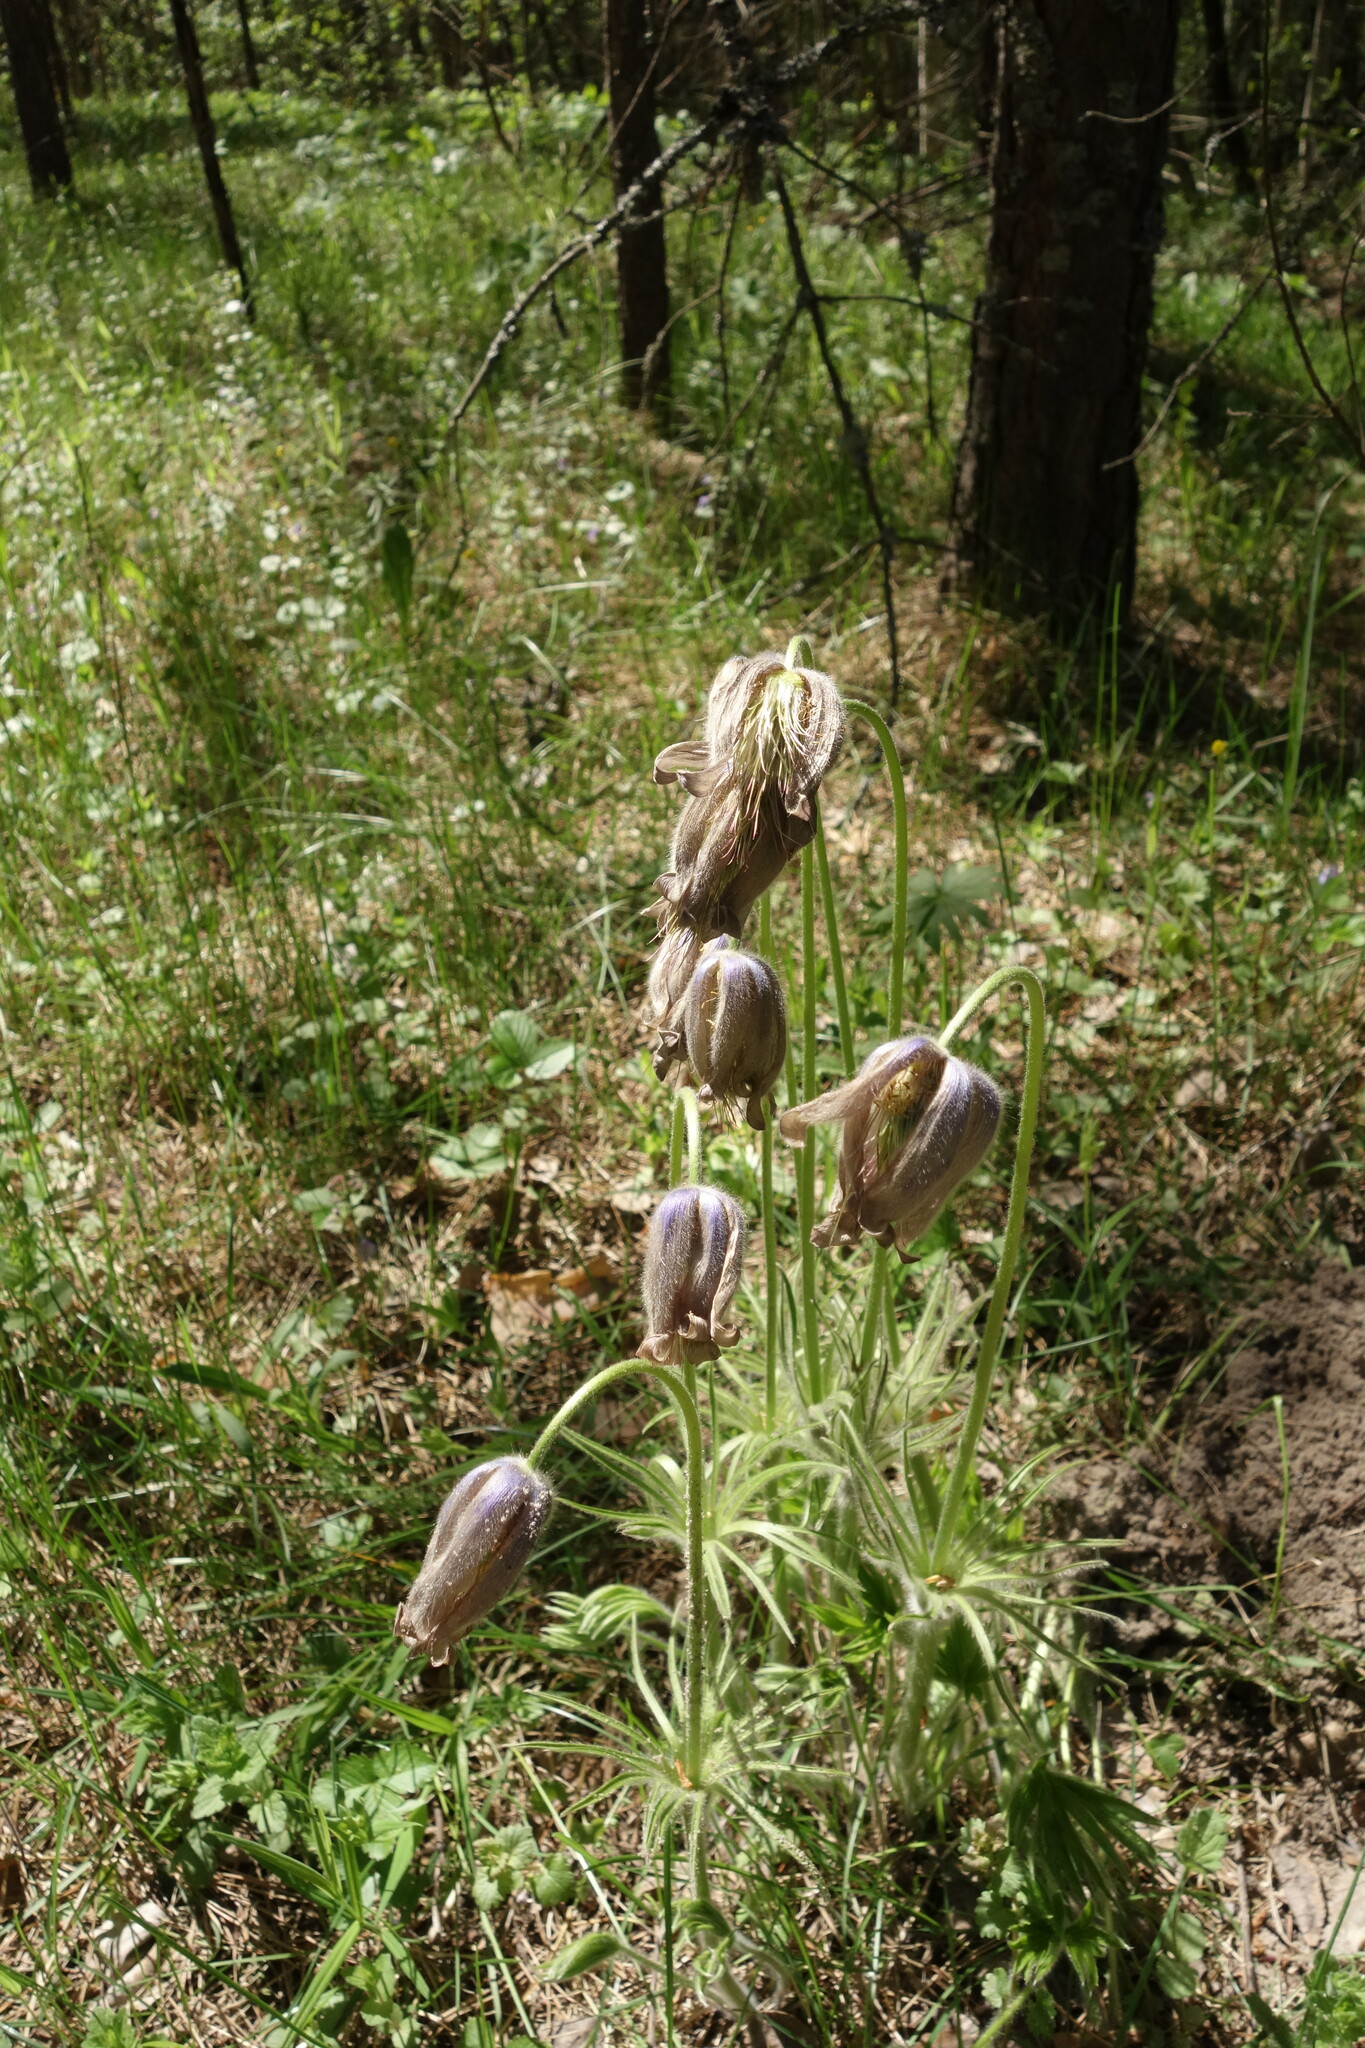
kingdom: Plantae
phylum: Tracheophyta
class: Magnoliopsida
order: Ranunculales
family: Ranunculaceae
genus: Pulsatilla
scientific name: Pulsatilla patens
